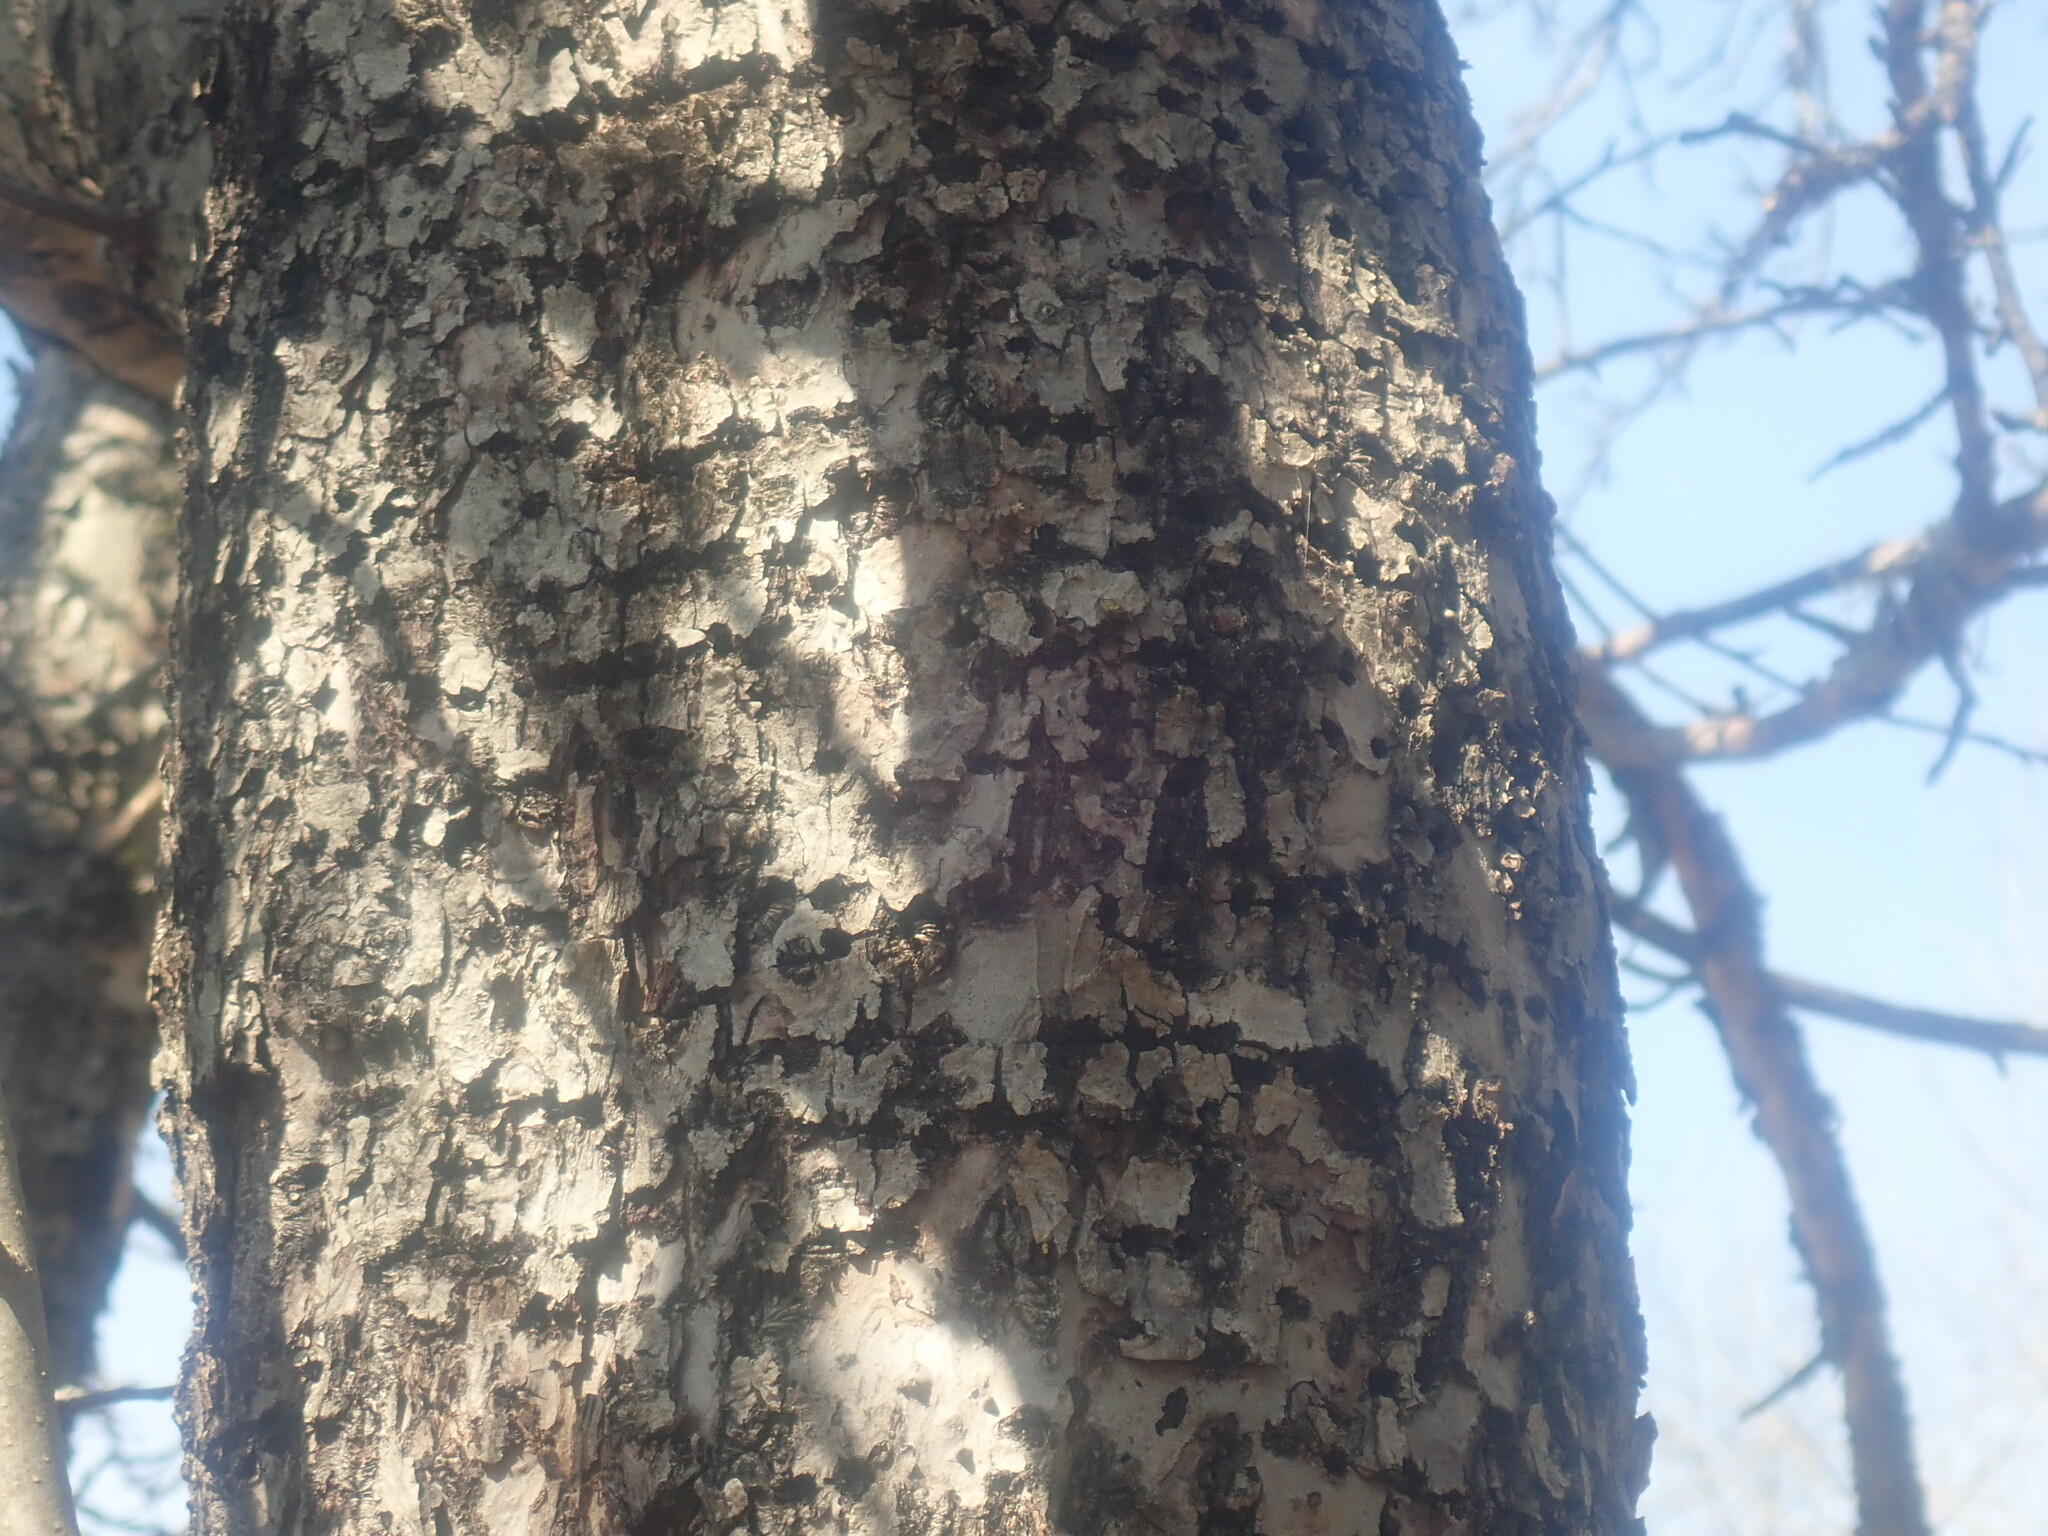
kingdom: Animalia
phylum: Chordata
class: Aves
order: Piciformes
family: Picidae
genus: Sphyrapicus
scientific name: Sphyrapicus varius
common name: Yellow-bellied sapsucker
